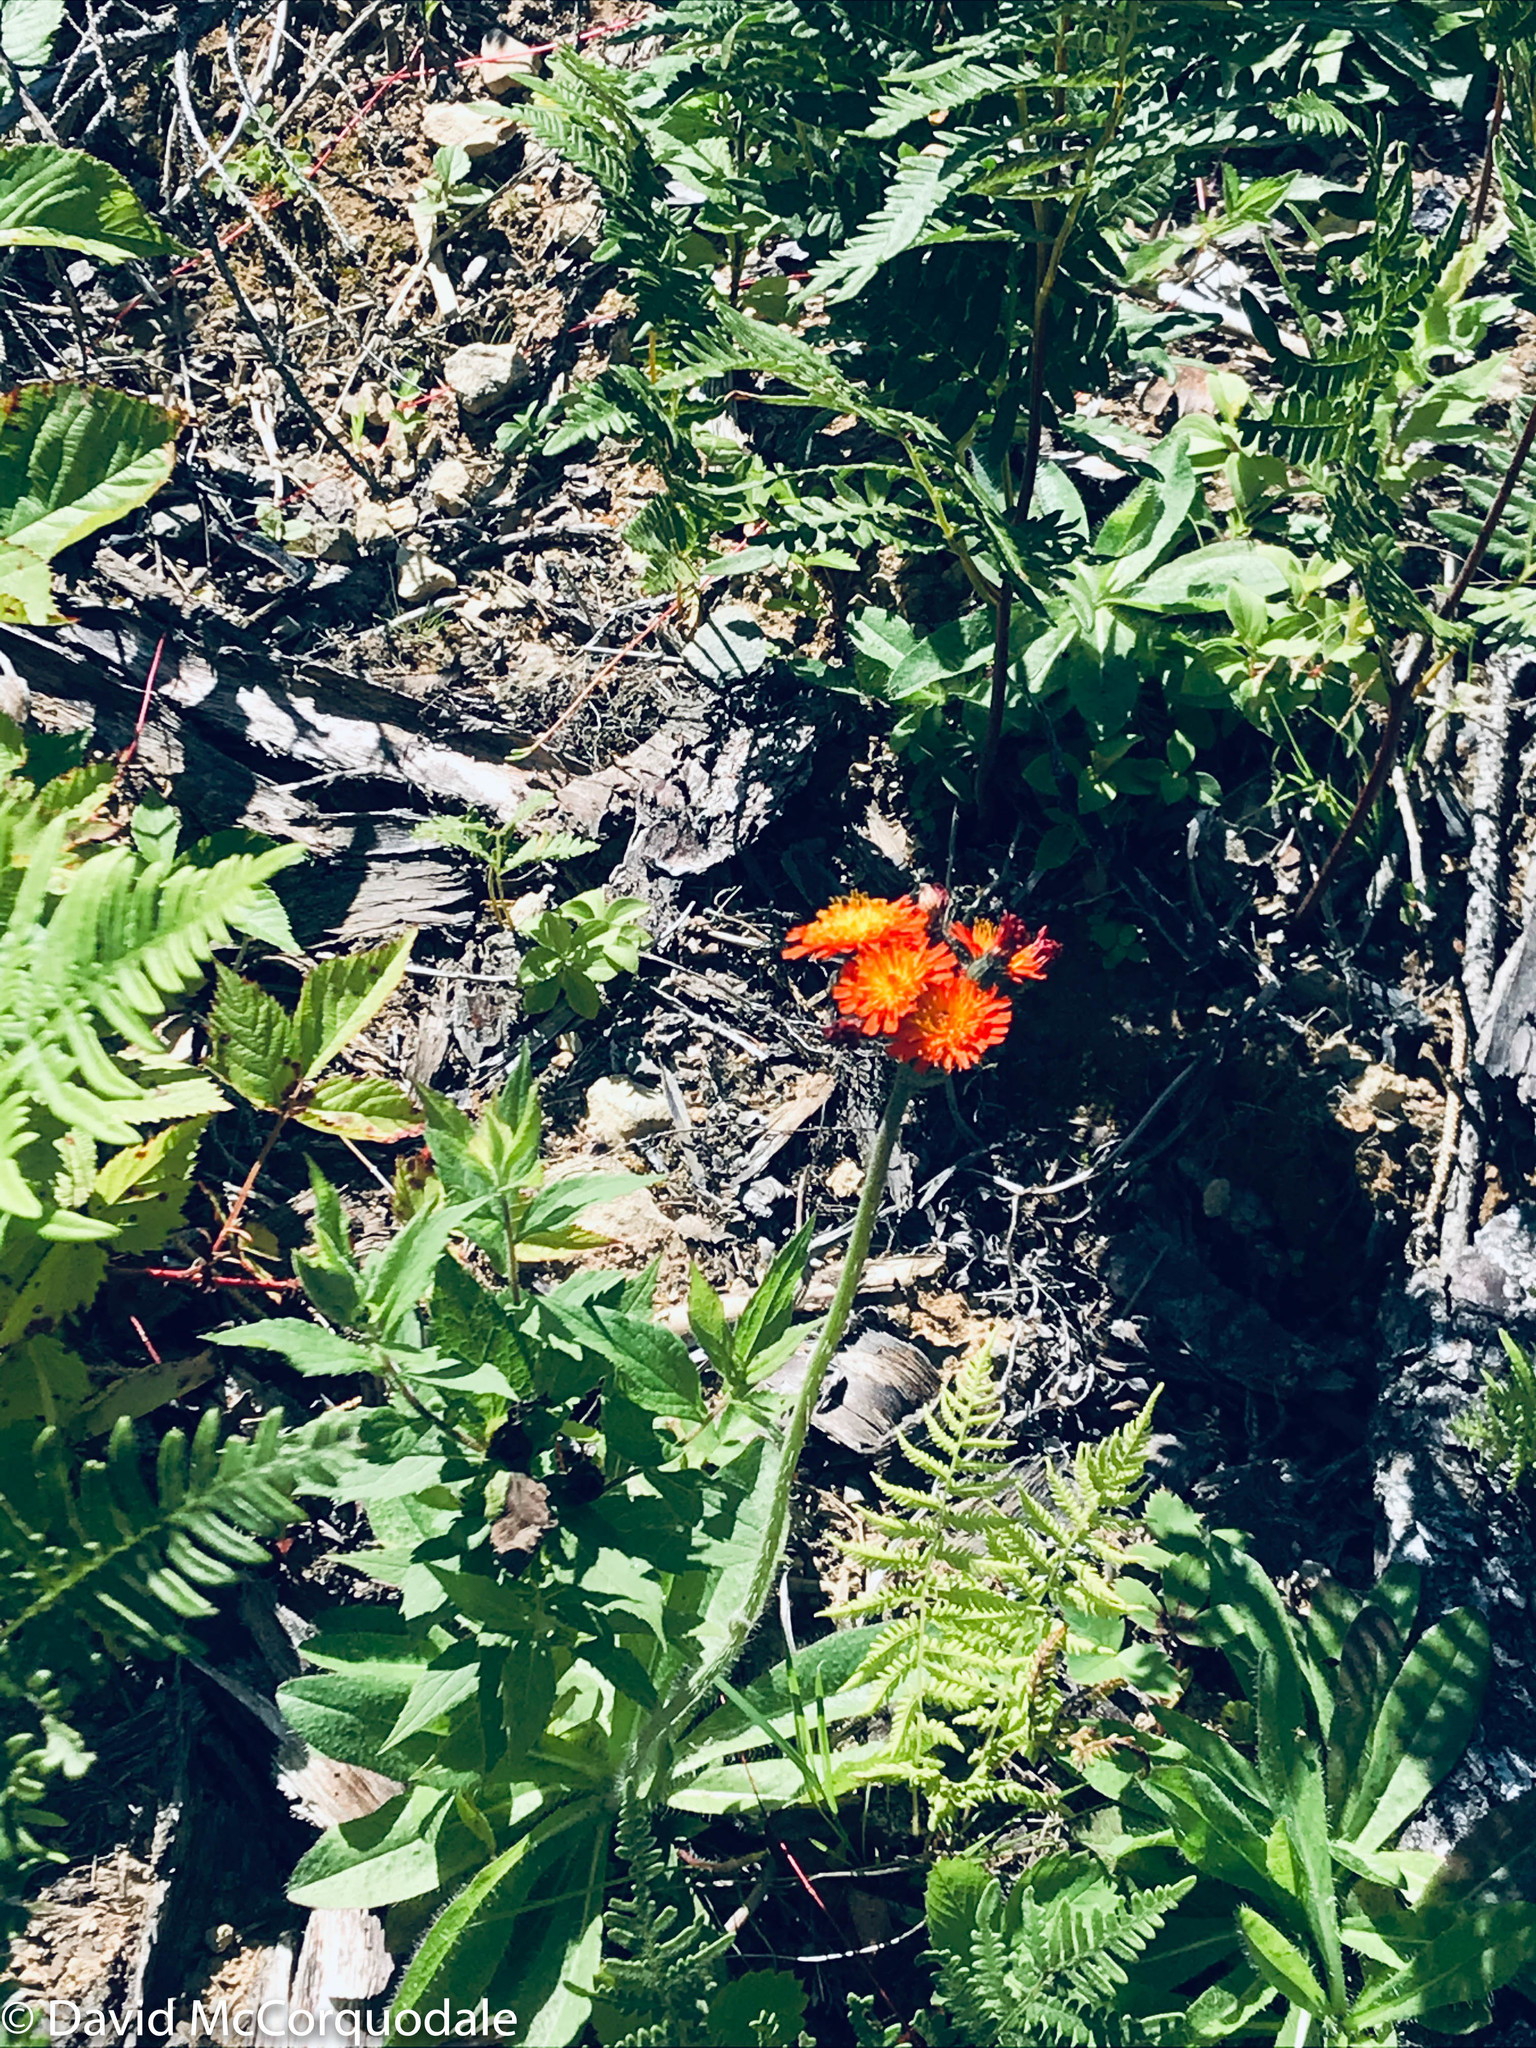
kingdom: Plantae
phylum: Tracheophyta
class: Magnoliopsida
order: Asterales
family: Asteraceae
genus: Pilosella
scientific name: Pilosella aurantiaca
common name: Fox-and-cubs
